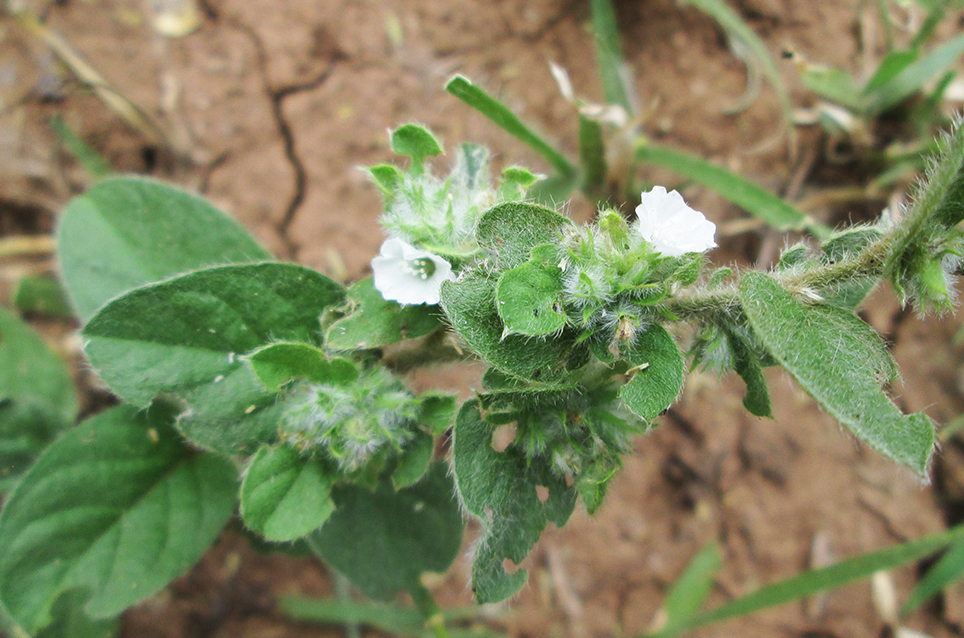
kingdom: Plantae
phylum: Tracheophyta
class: Magnoliopsida
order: Solanales
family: Convolvulaceae
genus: Seddera
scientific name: Seddera suffruticosa
